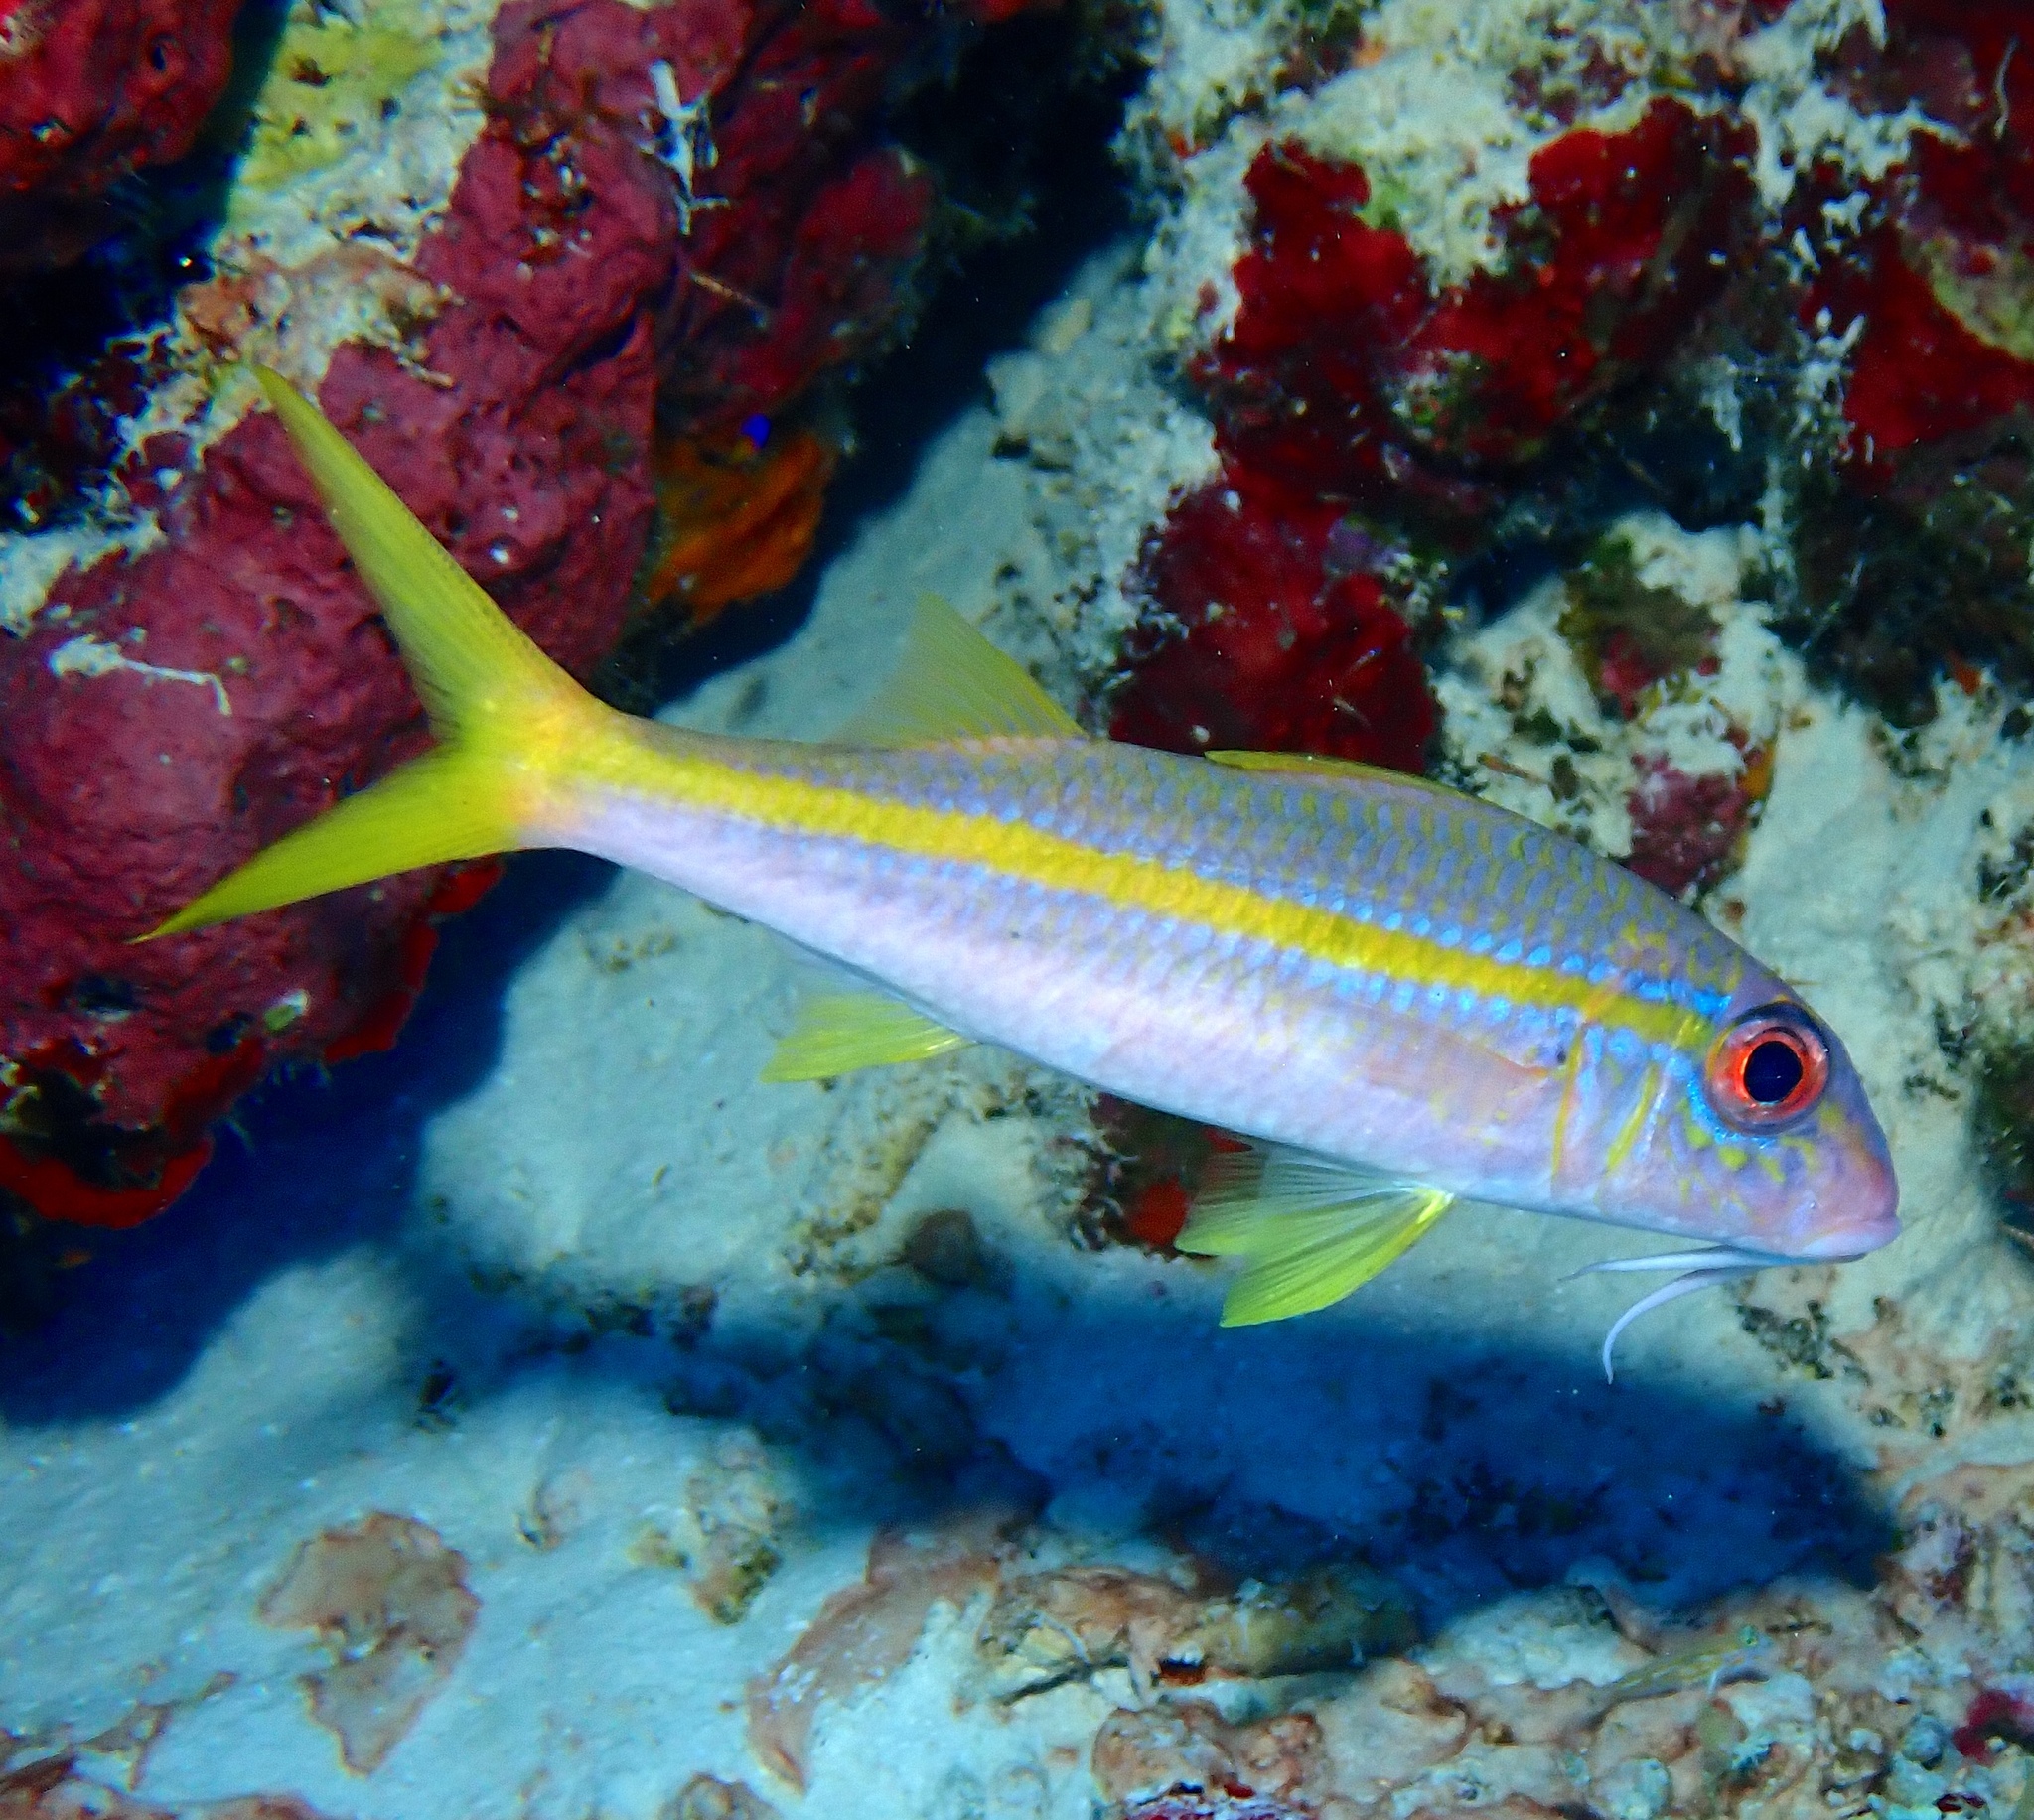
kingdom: Animalia
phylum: Chordata
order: Perciformes
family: Mullidae
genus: Mulloidichthys
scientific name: Mulloidichthys martinicus
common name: Yellow goatfish
